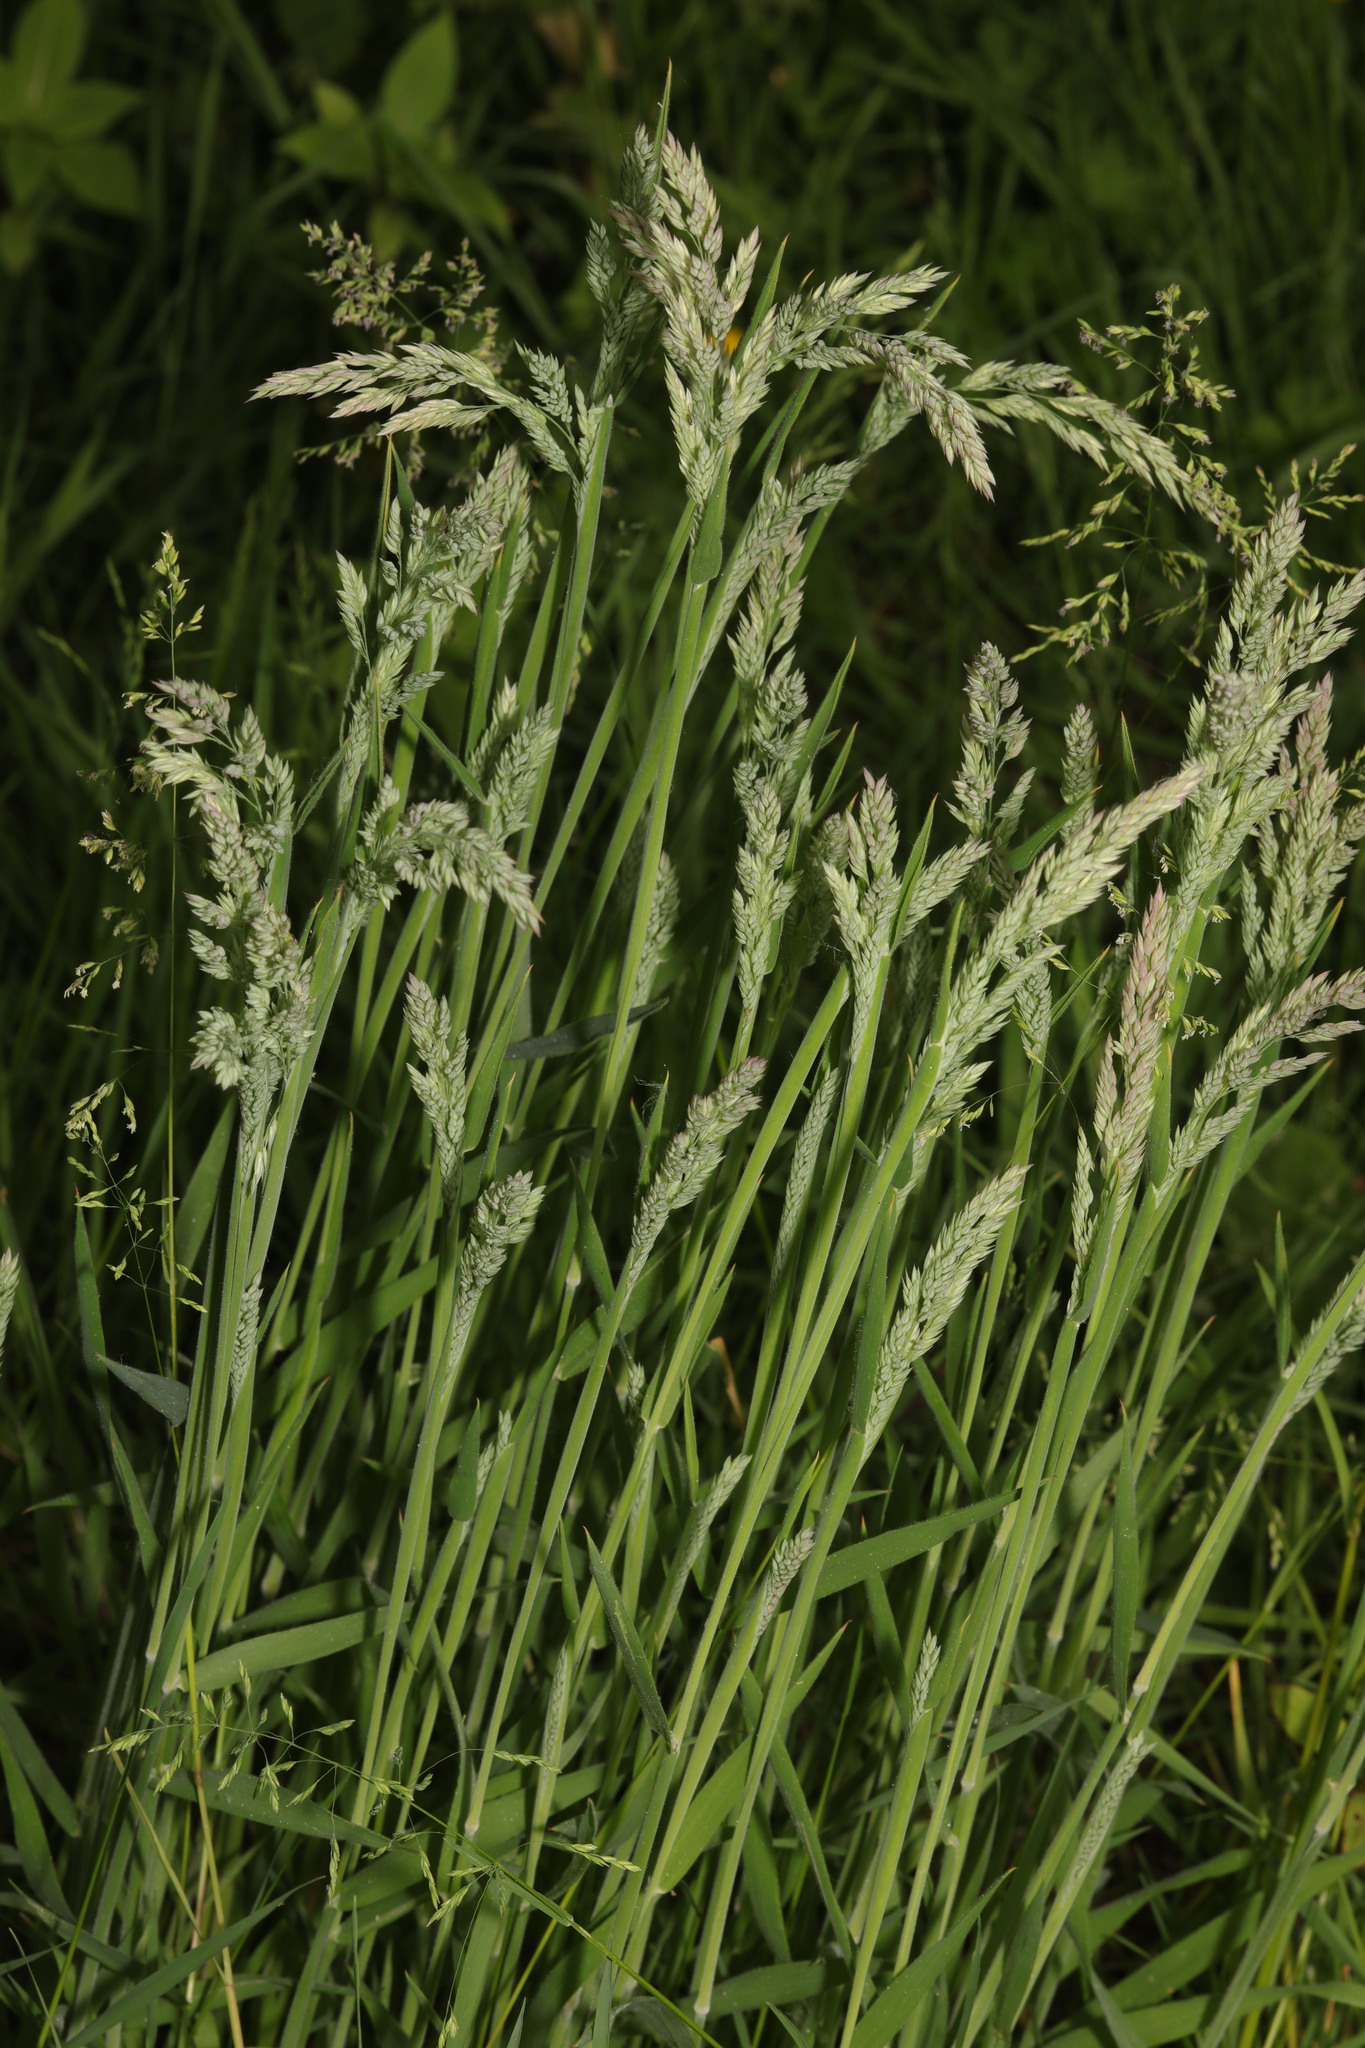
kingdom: Plantae
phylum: Tracheophyta
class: Liliopsida
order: Poales
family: Poaceae
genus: Holcus
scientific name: Holcus lanatus
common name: Yorkshire-fog
